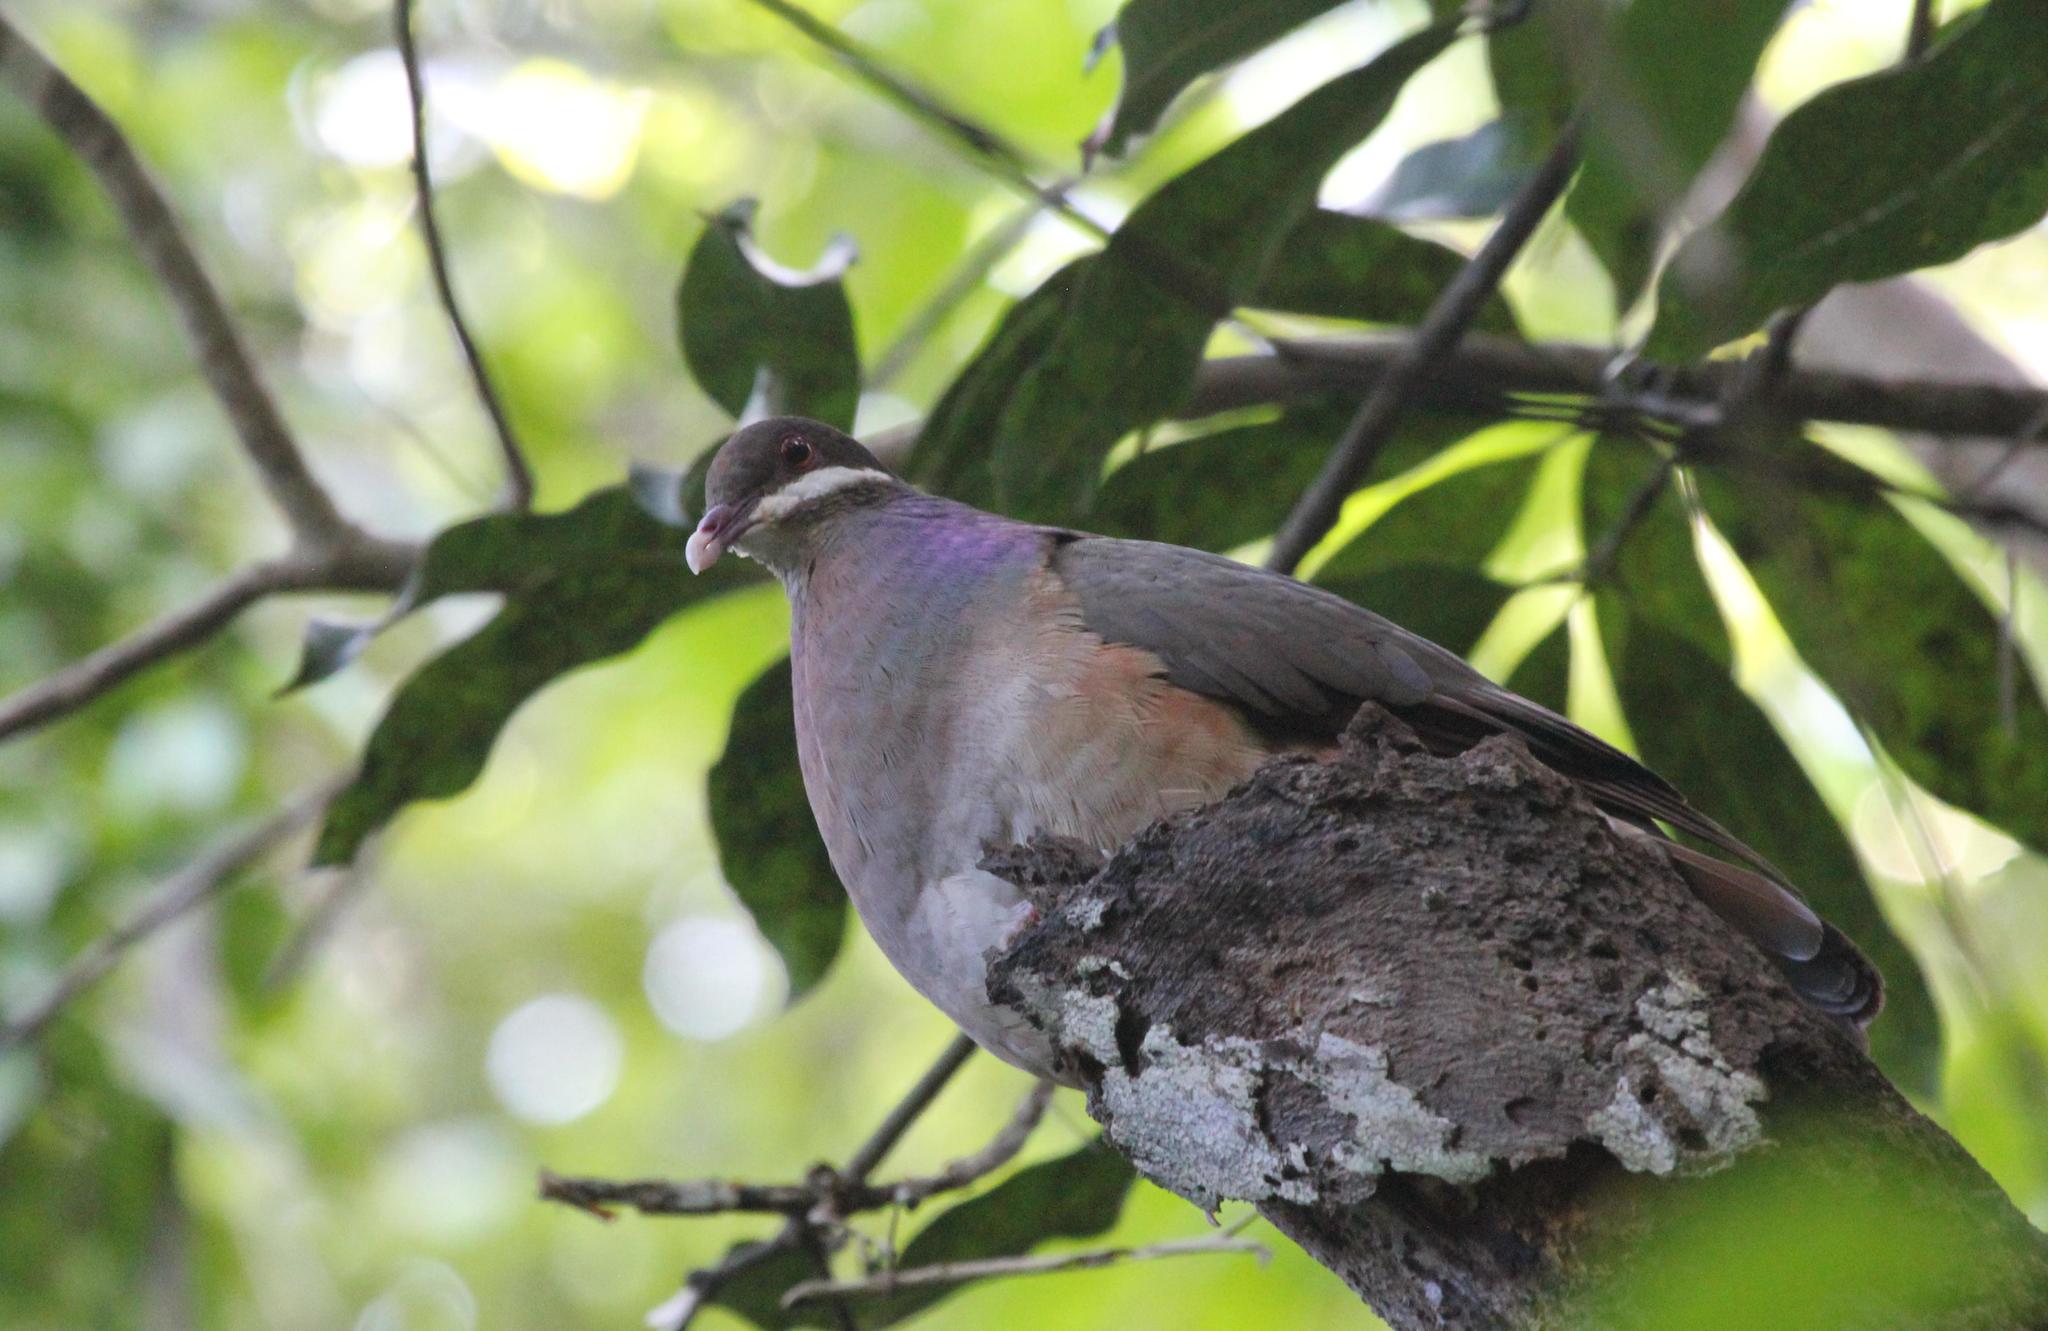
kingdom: Animalia
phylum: Chordata
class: Aves
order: Columbiformes
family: Columbidae
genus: Geotrygon
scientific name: Geotrygon mystacea
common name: Bridled quail-dove
